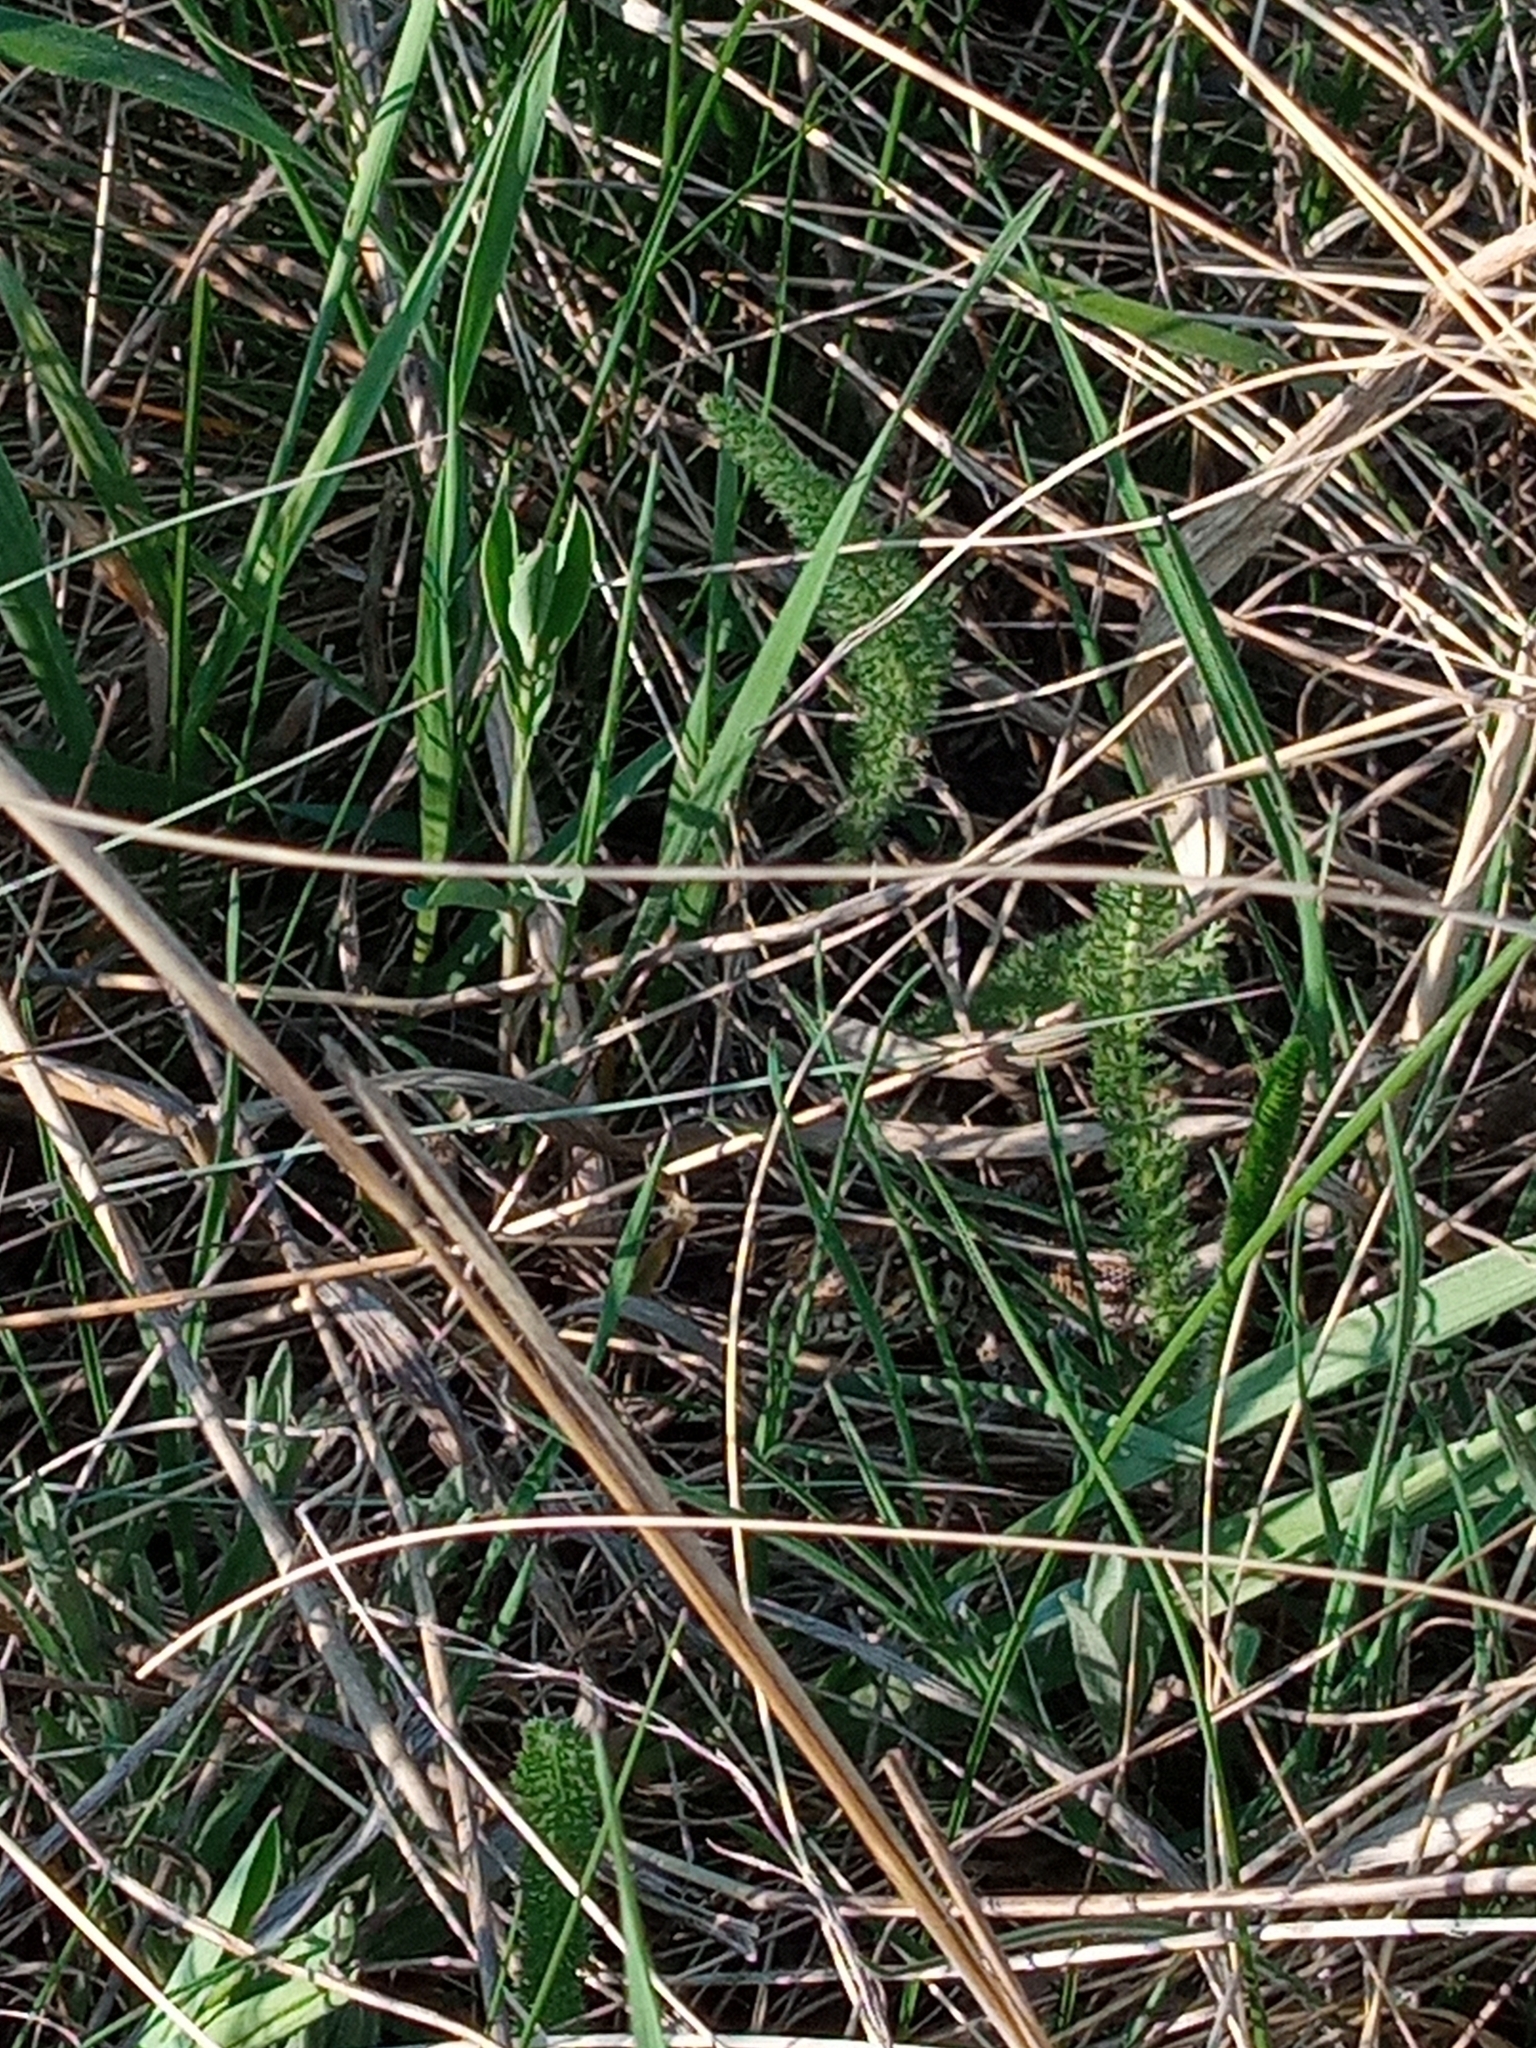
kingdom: Animalia
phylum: Chordata
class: Squamata
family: Lacertidae
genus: Lacerta
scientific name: Lacerta agilis
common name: Sand lizard
